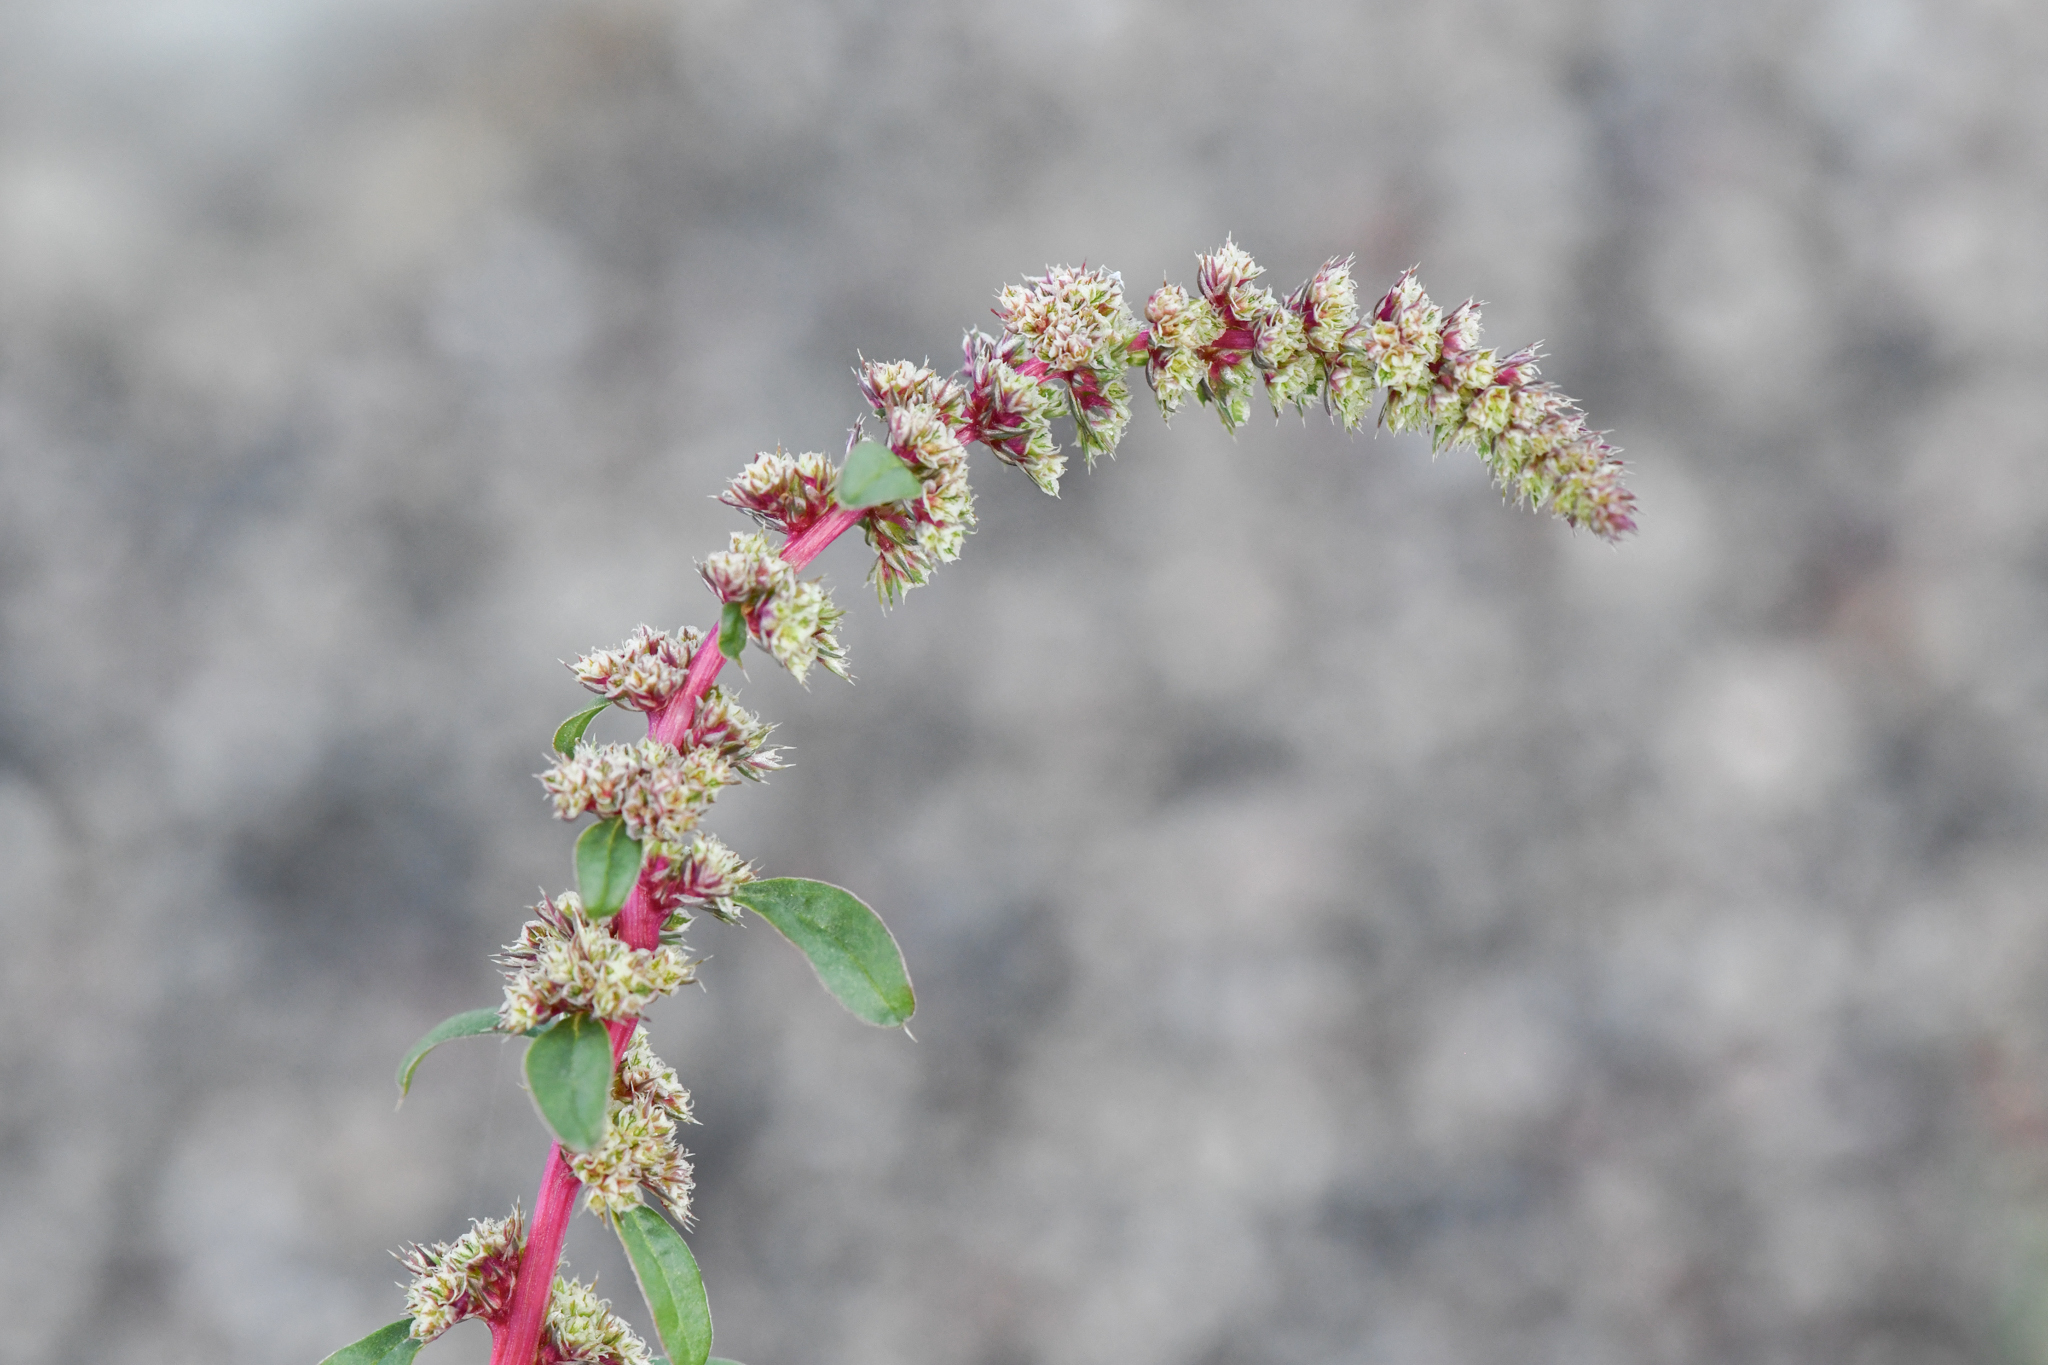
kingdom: Plantae
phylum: Tracheophyta
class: Magnoliopsida
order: Caryophyllales
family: Amaranthaceae
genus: Amaranthus
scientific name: Amaranthus torreyi
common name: Bigelow's amaranth
